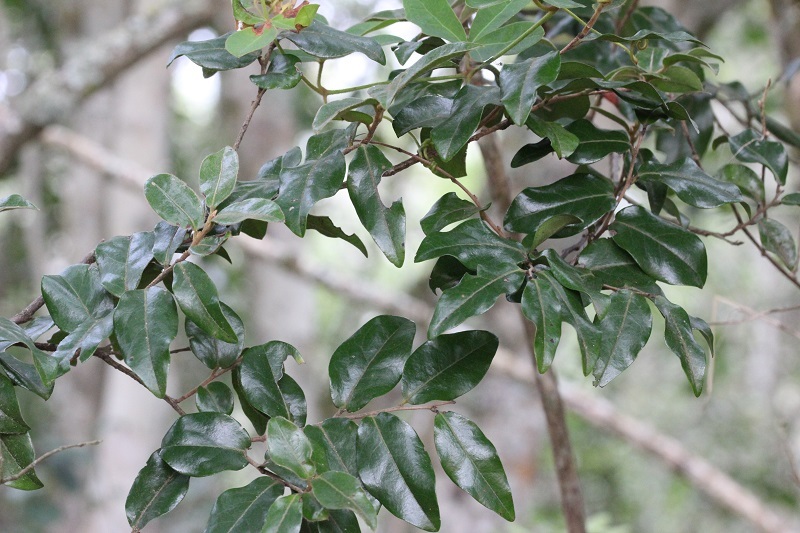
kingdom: Plantae
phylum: Tracheophyta
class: Magnoliopsida
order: Ericales
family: Ebenaceae
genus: Diospyros
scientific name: Diospyros whyteana
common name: Bladder-nut
